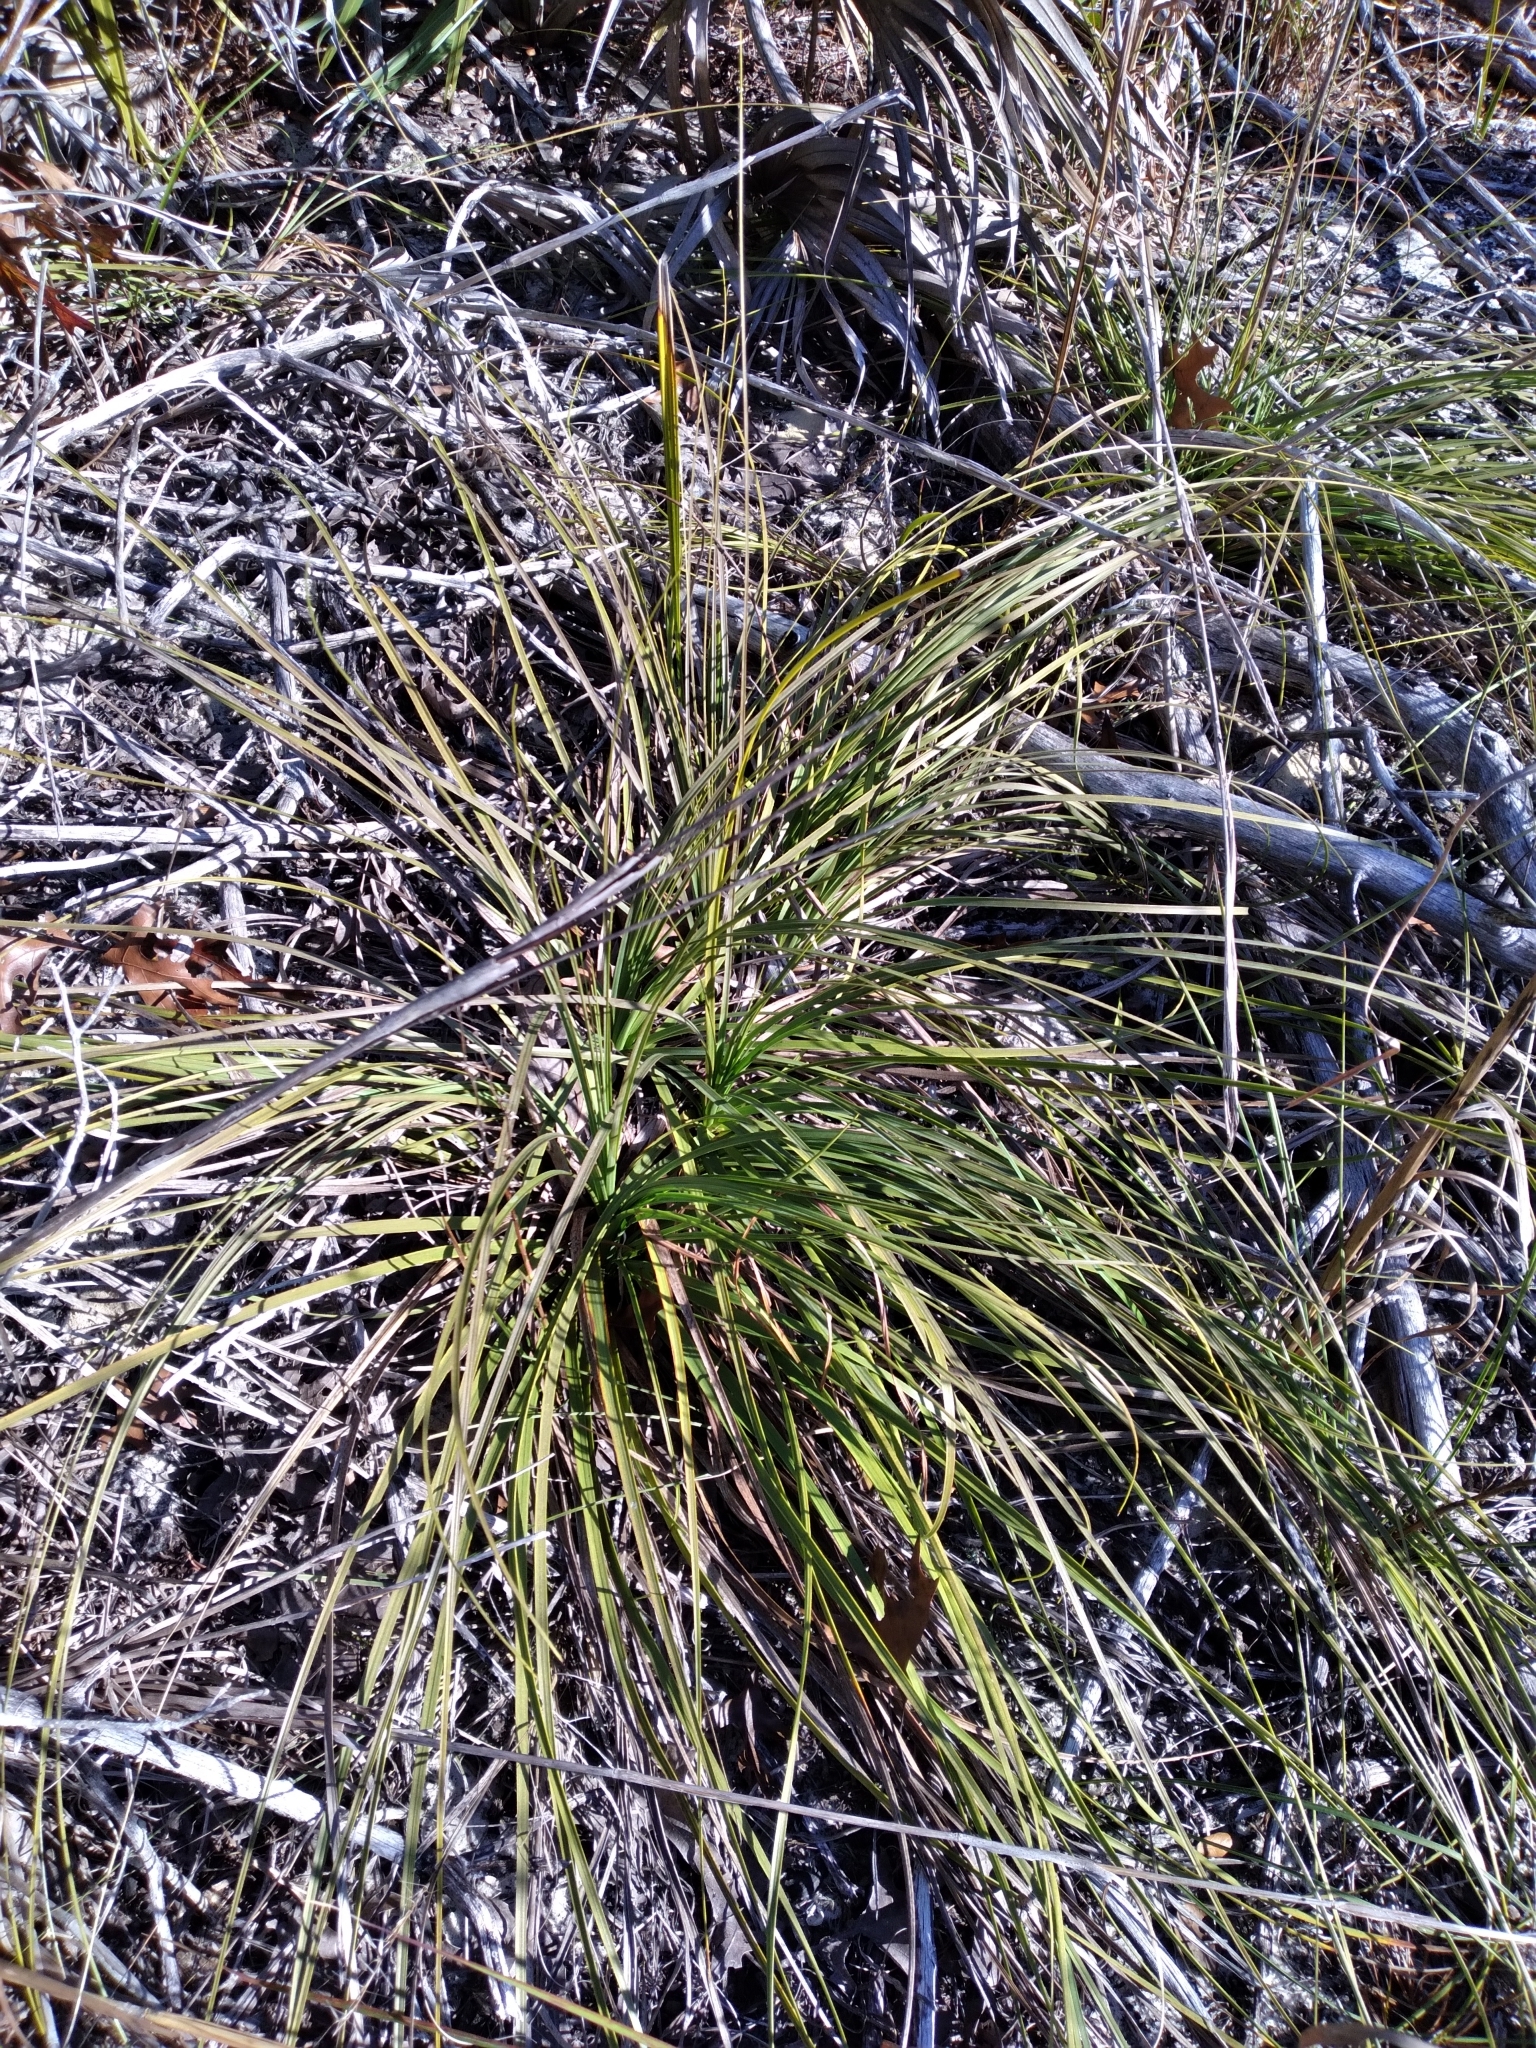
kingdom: Plantae
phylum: Tracheophyta
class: Liliopsida
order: Asparagales
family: Asparagaceae
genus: Nolina
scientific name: Nolina brittoniana
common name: Britton's bear-grass
